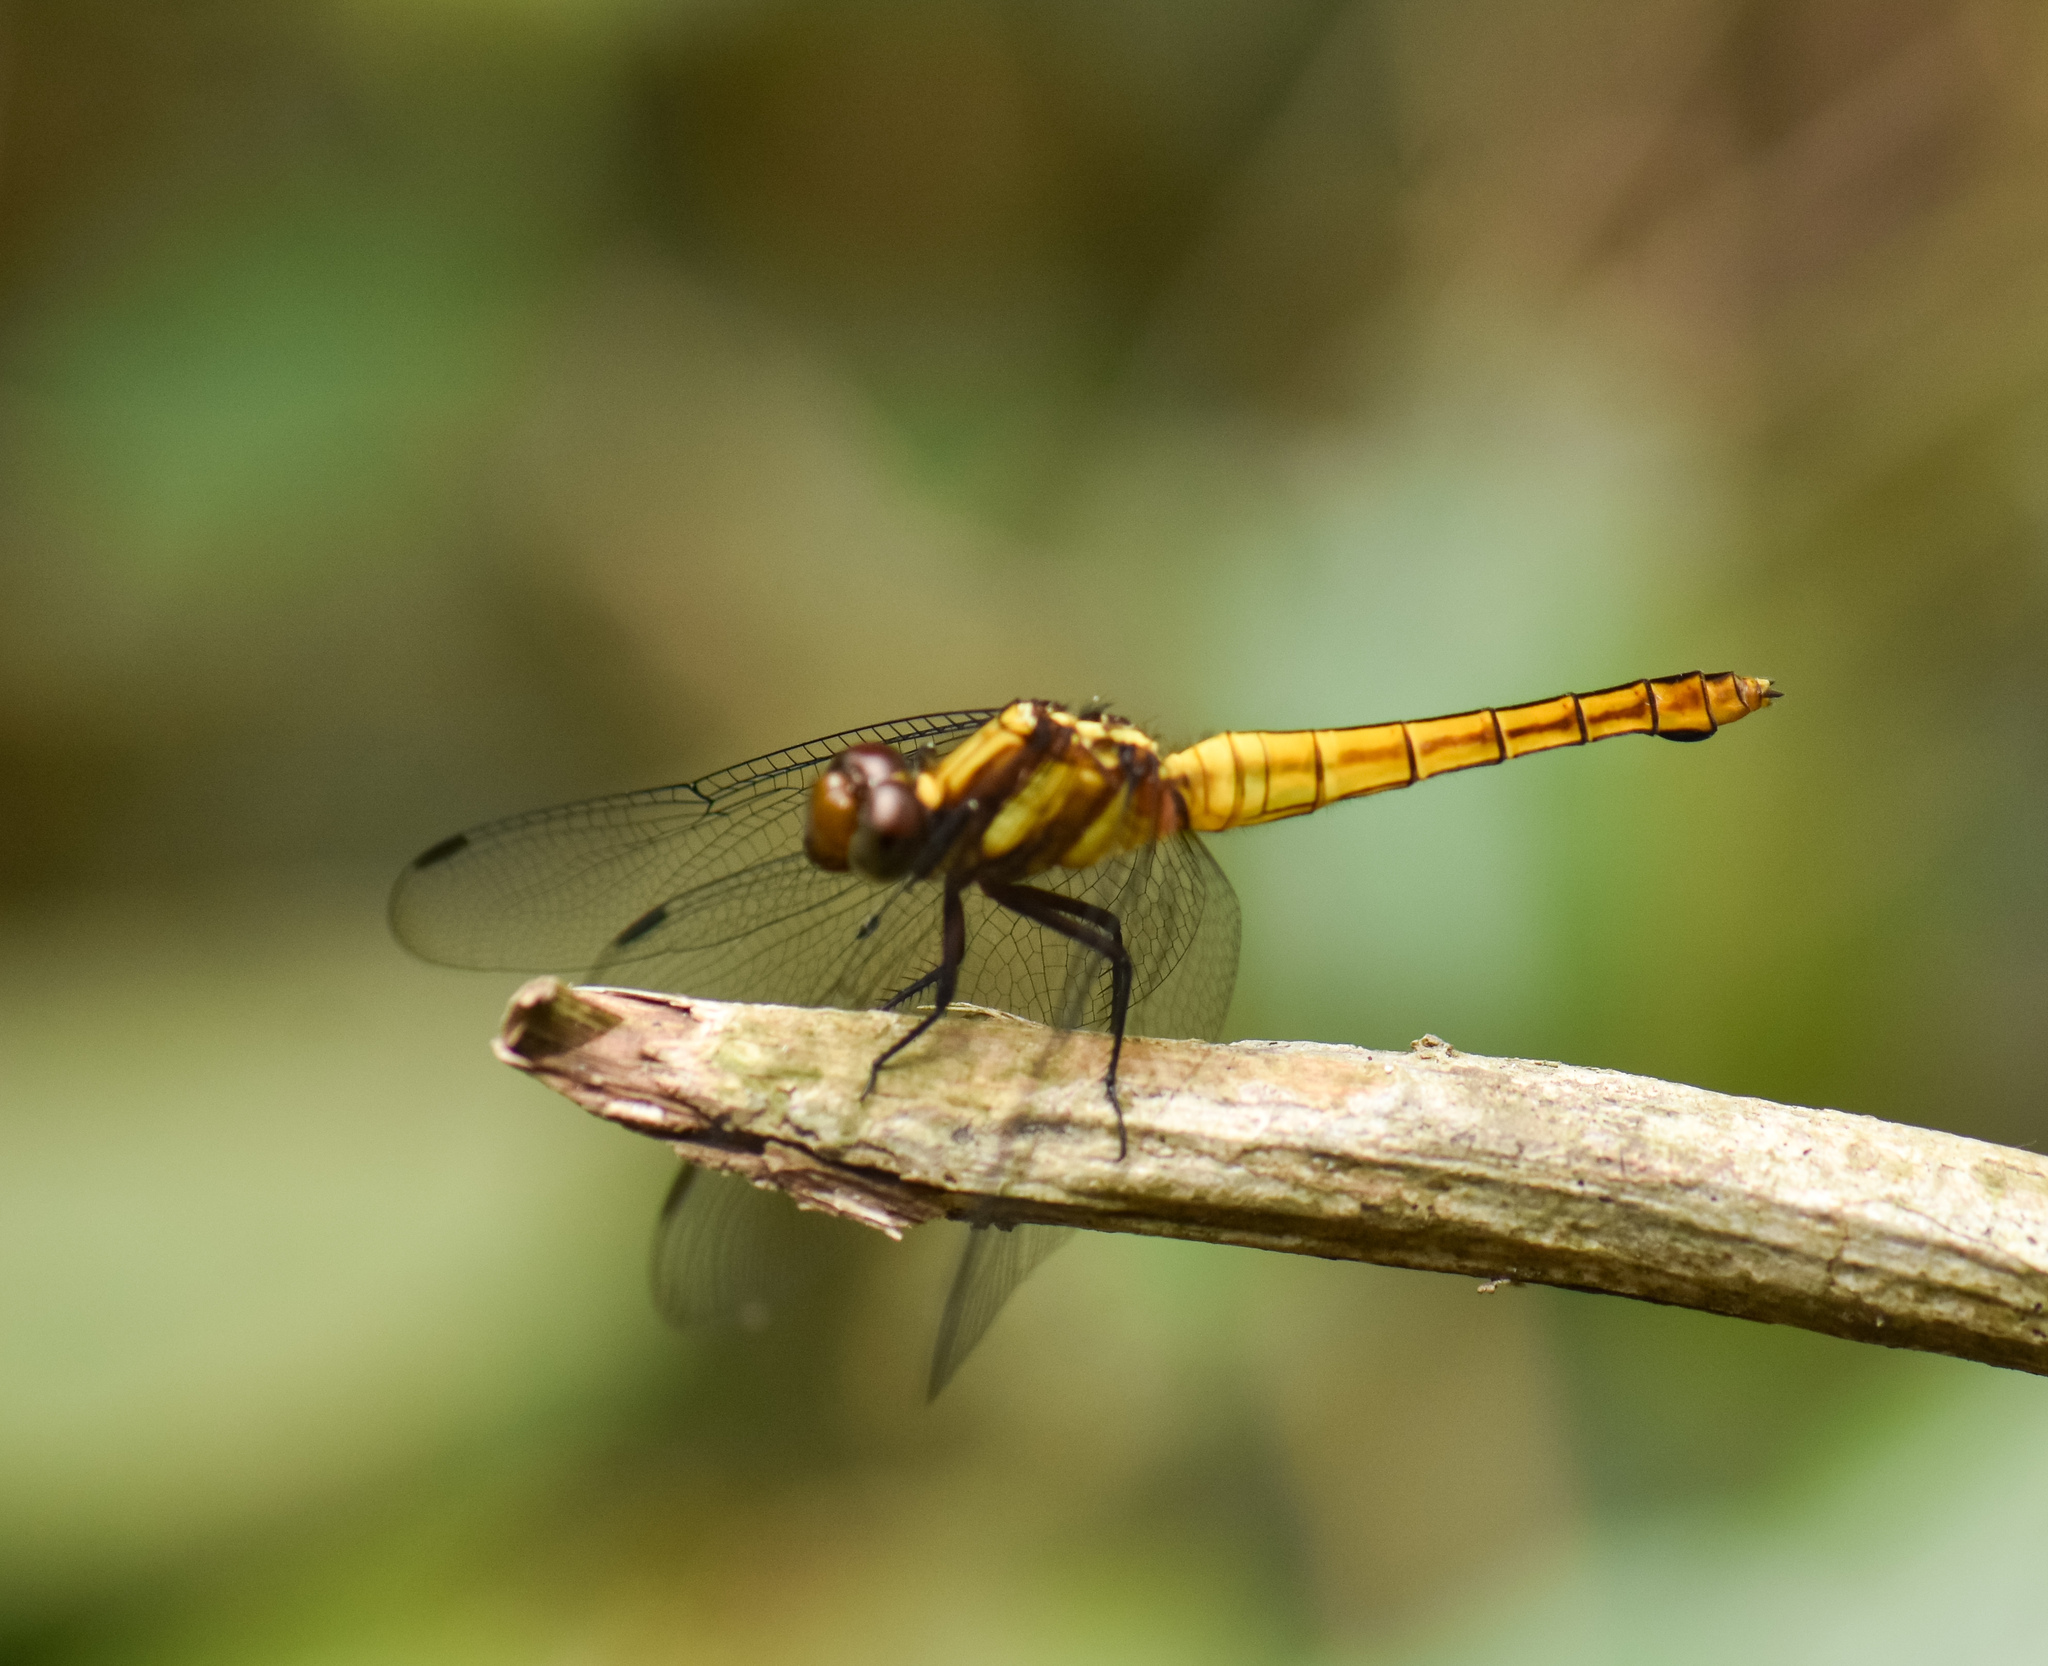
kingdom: Animalia
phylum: Arthropoda
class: Insecta
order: Odonata
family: Libellulidae
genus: Orthetrum
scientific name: Orthetrum triangulare
